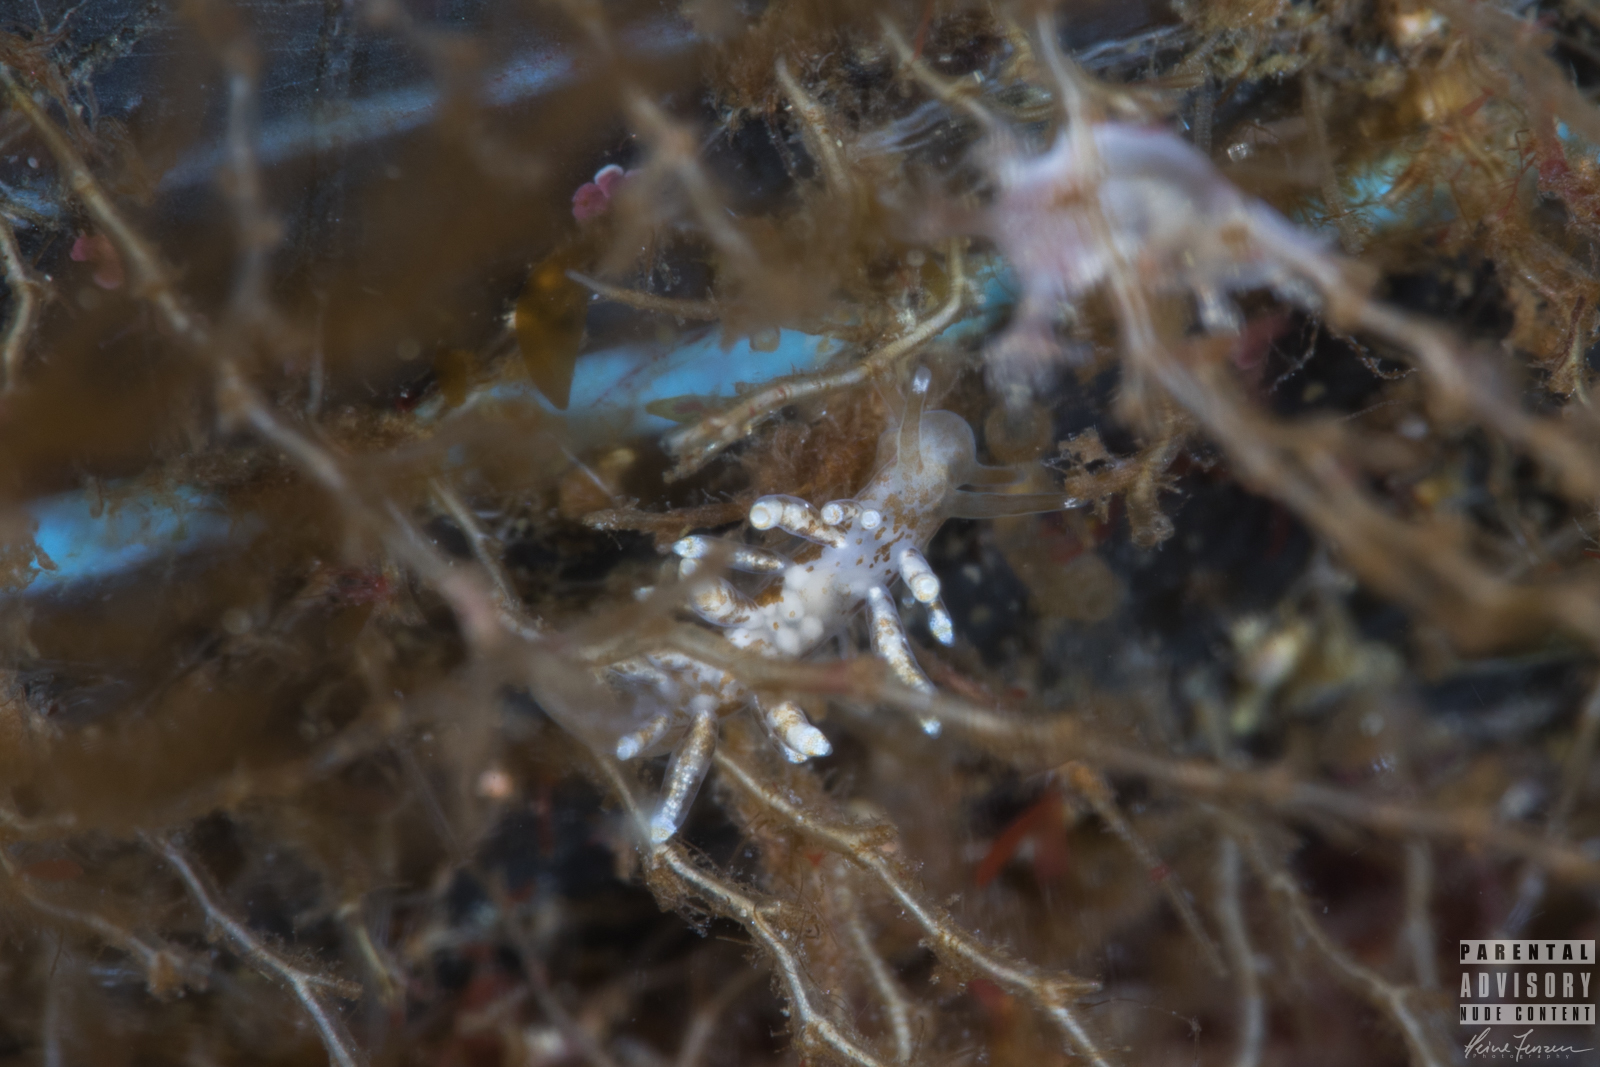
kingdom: Animalia
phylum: Mollusca
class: Gastropoda
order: Nudibranchia
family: Eubranchidae
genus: Eubranchus
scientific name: Eubranchus exiguus
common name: Balloon aeolis
